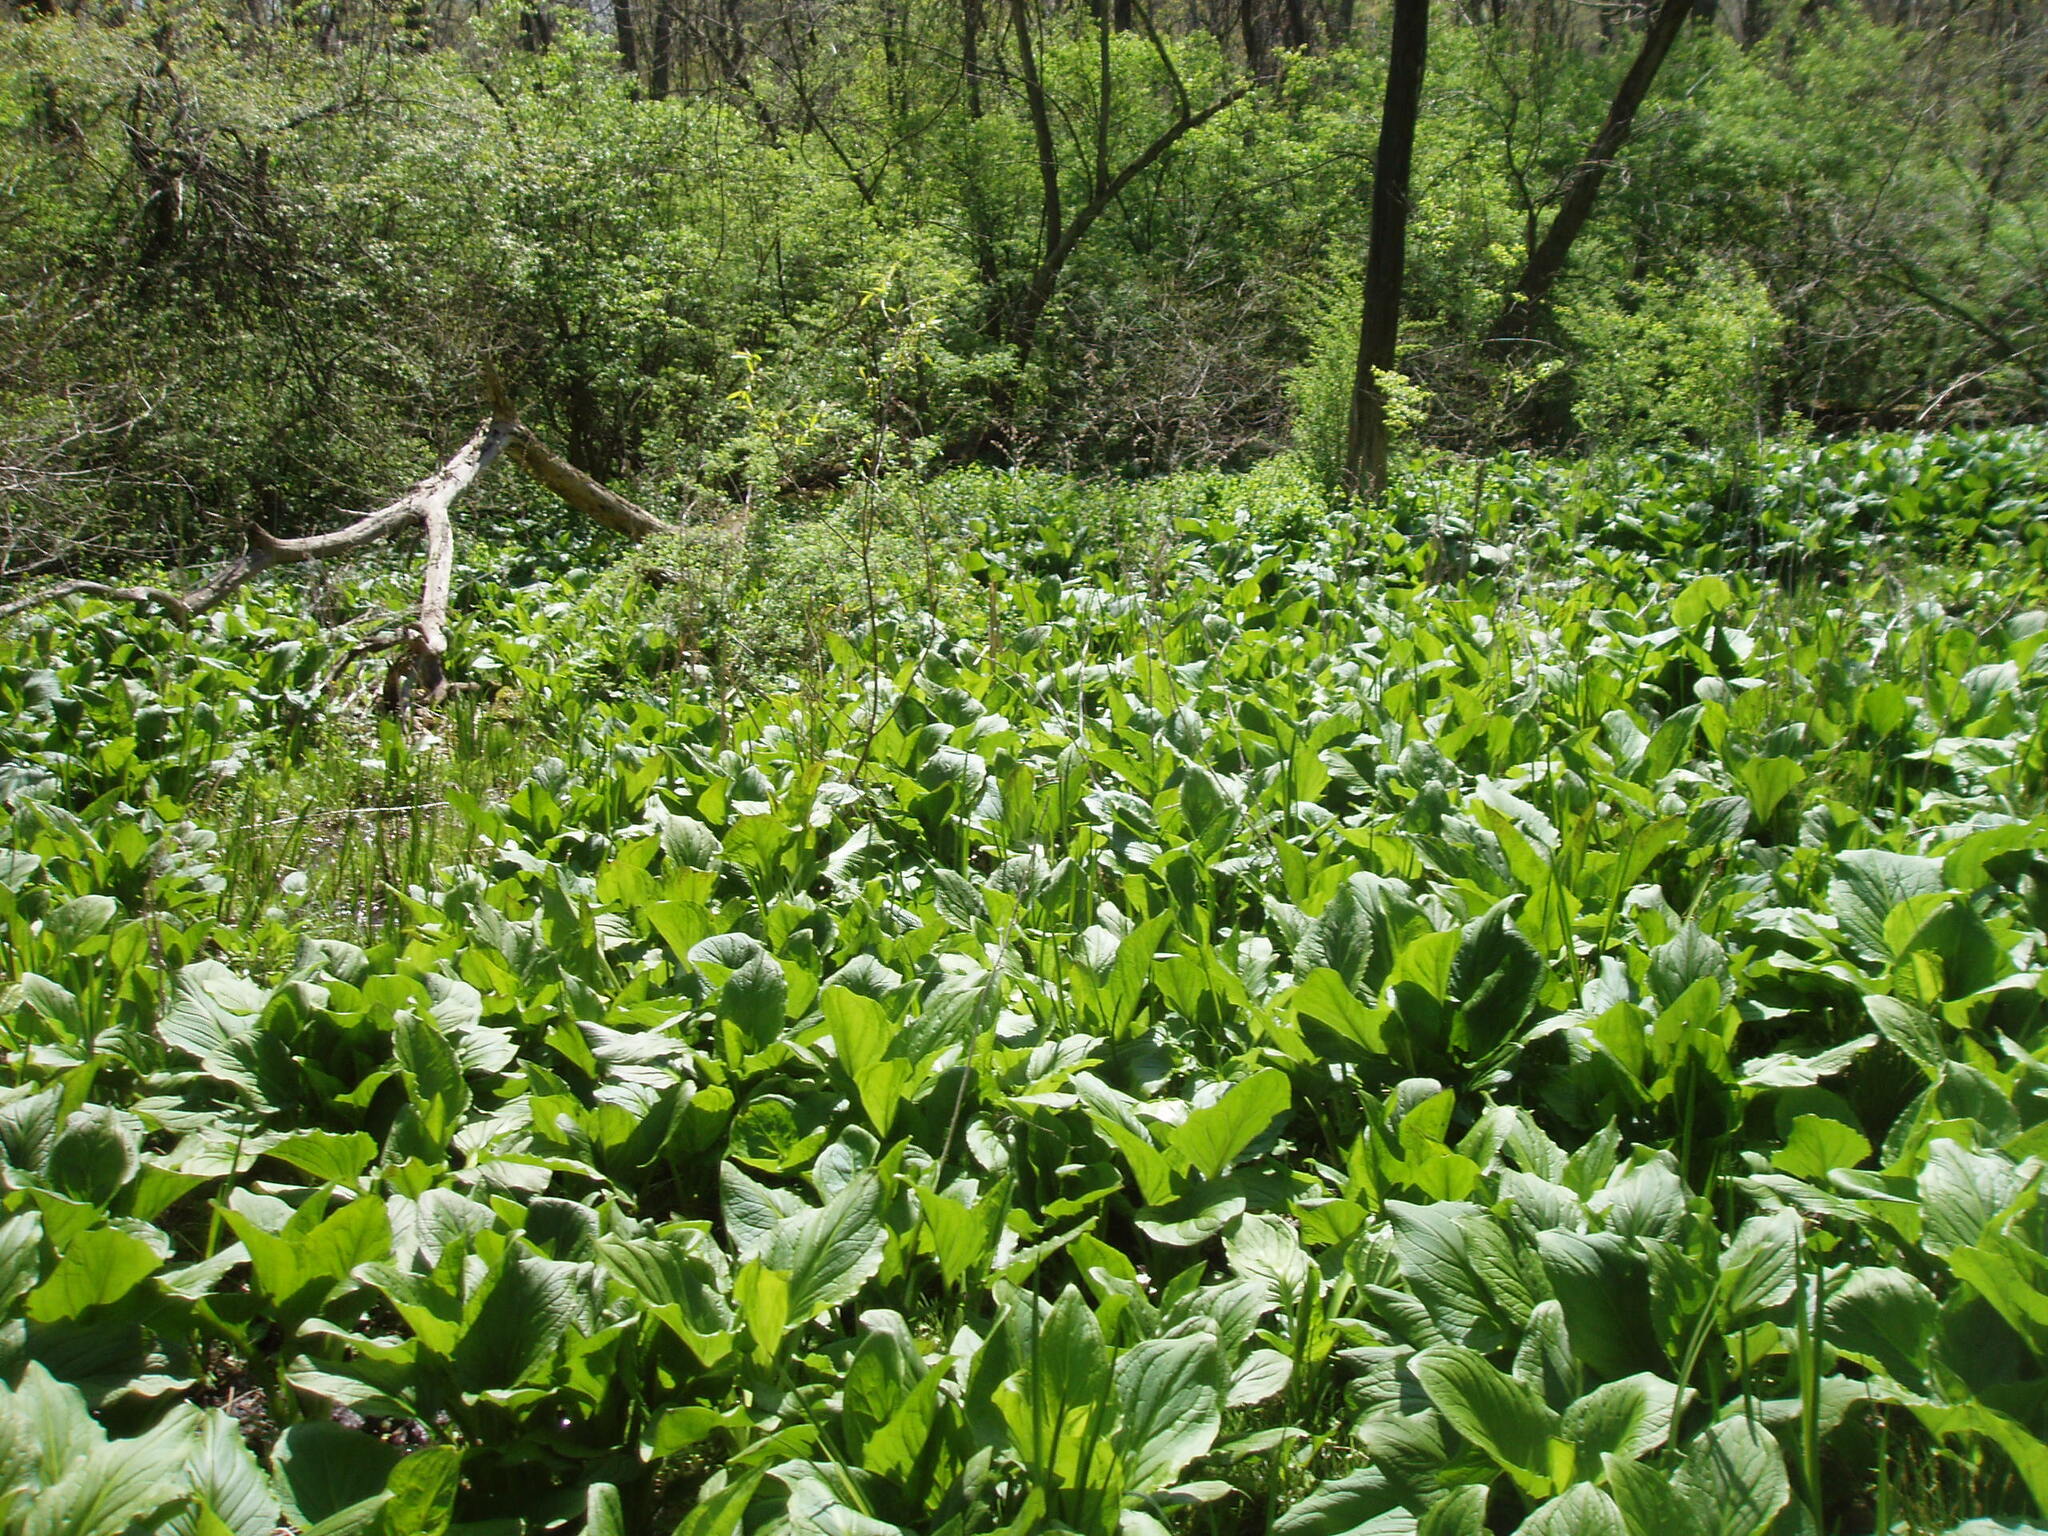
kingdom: Plantae
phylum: Tracheophyta
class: Liliopsida
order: Alismatales
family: Araceae
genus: Symplocarpus
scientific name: Symplocarpus foetidus
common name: Eastern skunk cabbage
